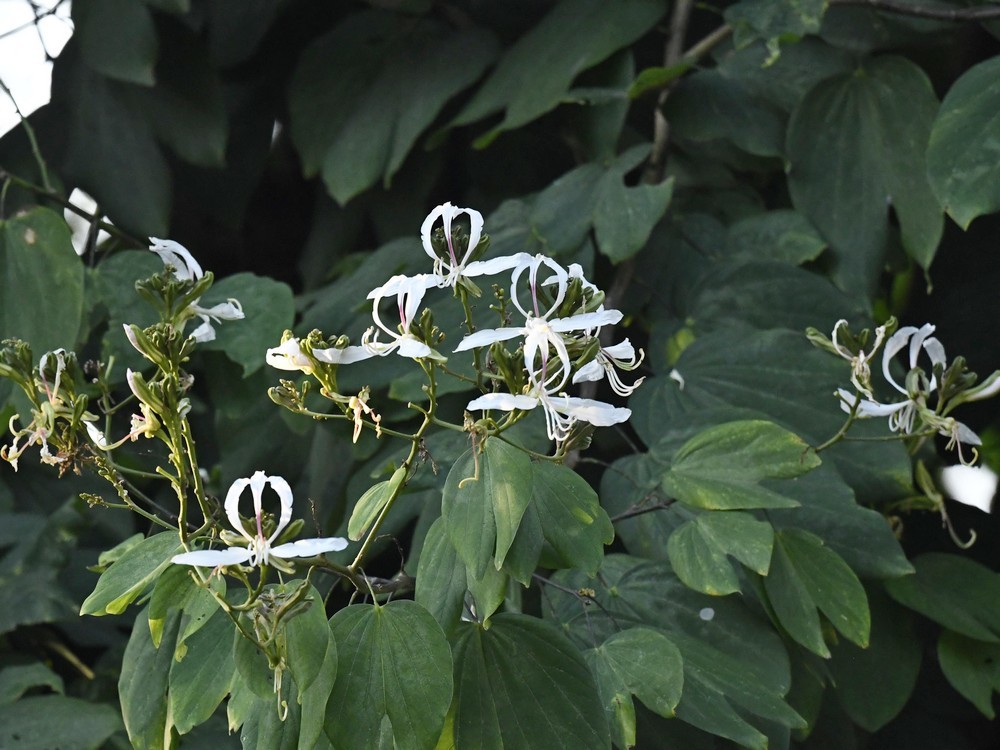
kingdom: Plantae
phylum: Tracheophyta
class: Magnoliopsida
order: Fabales
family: Fabaceae
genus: Bauhinia
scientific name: Bauhinia purpurea
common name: Butterfly-tree
